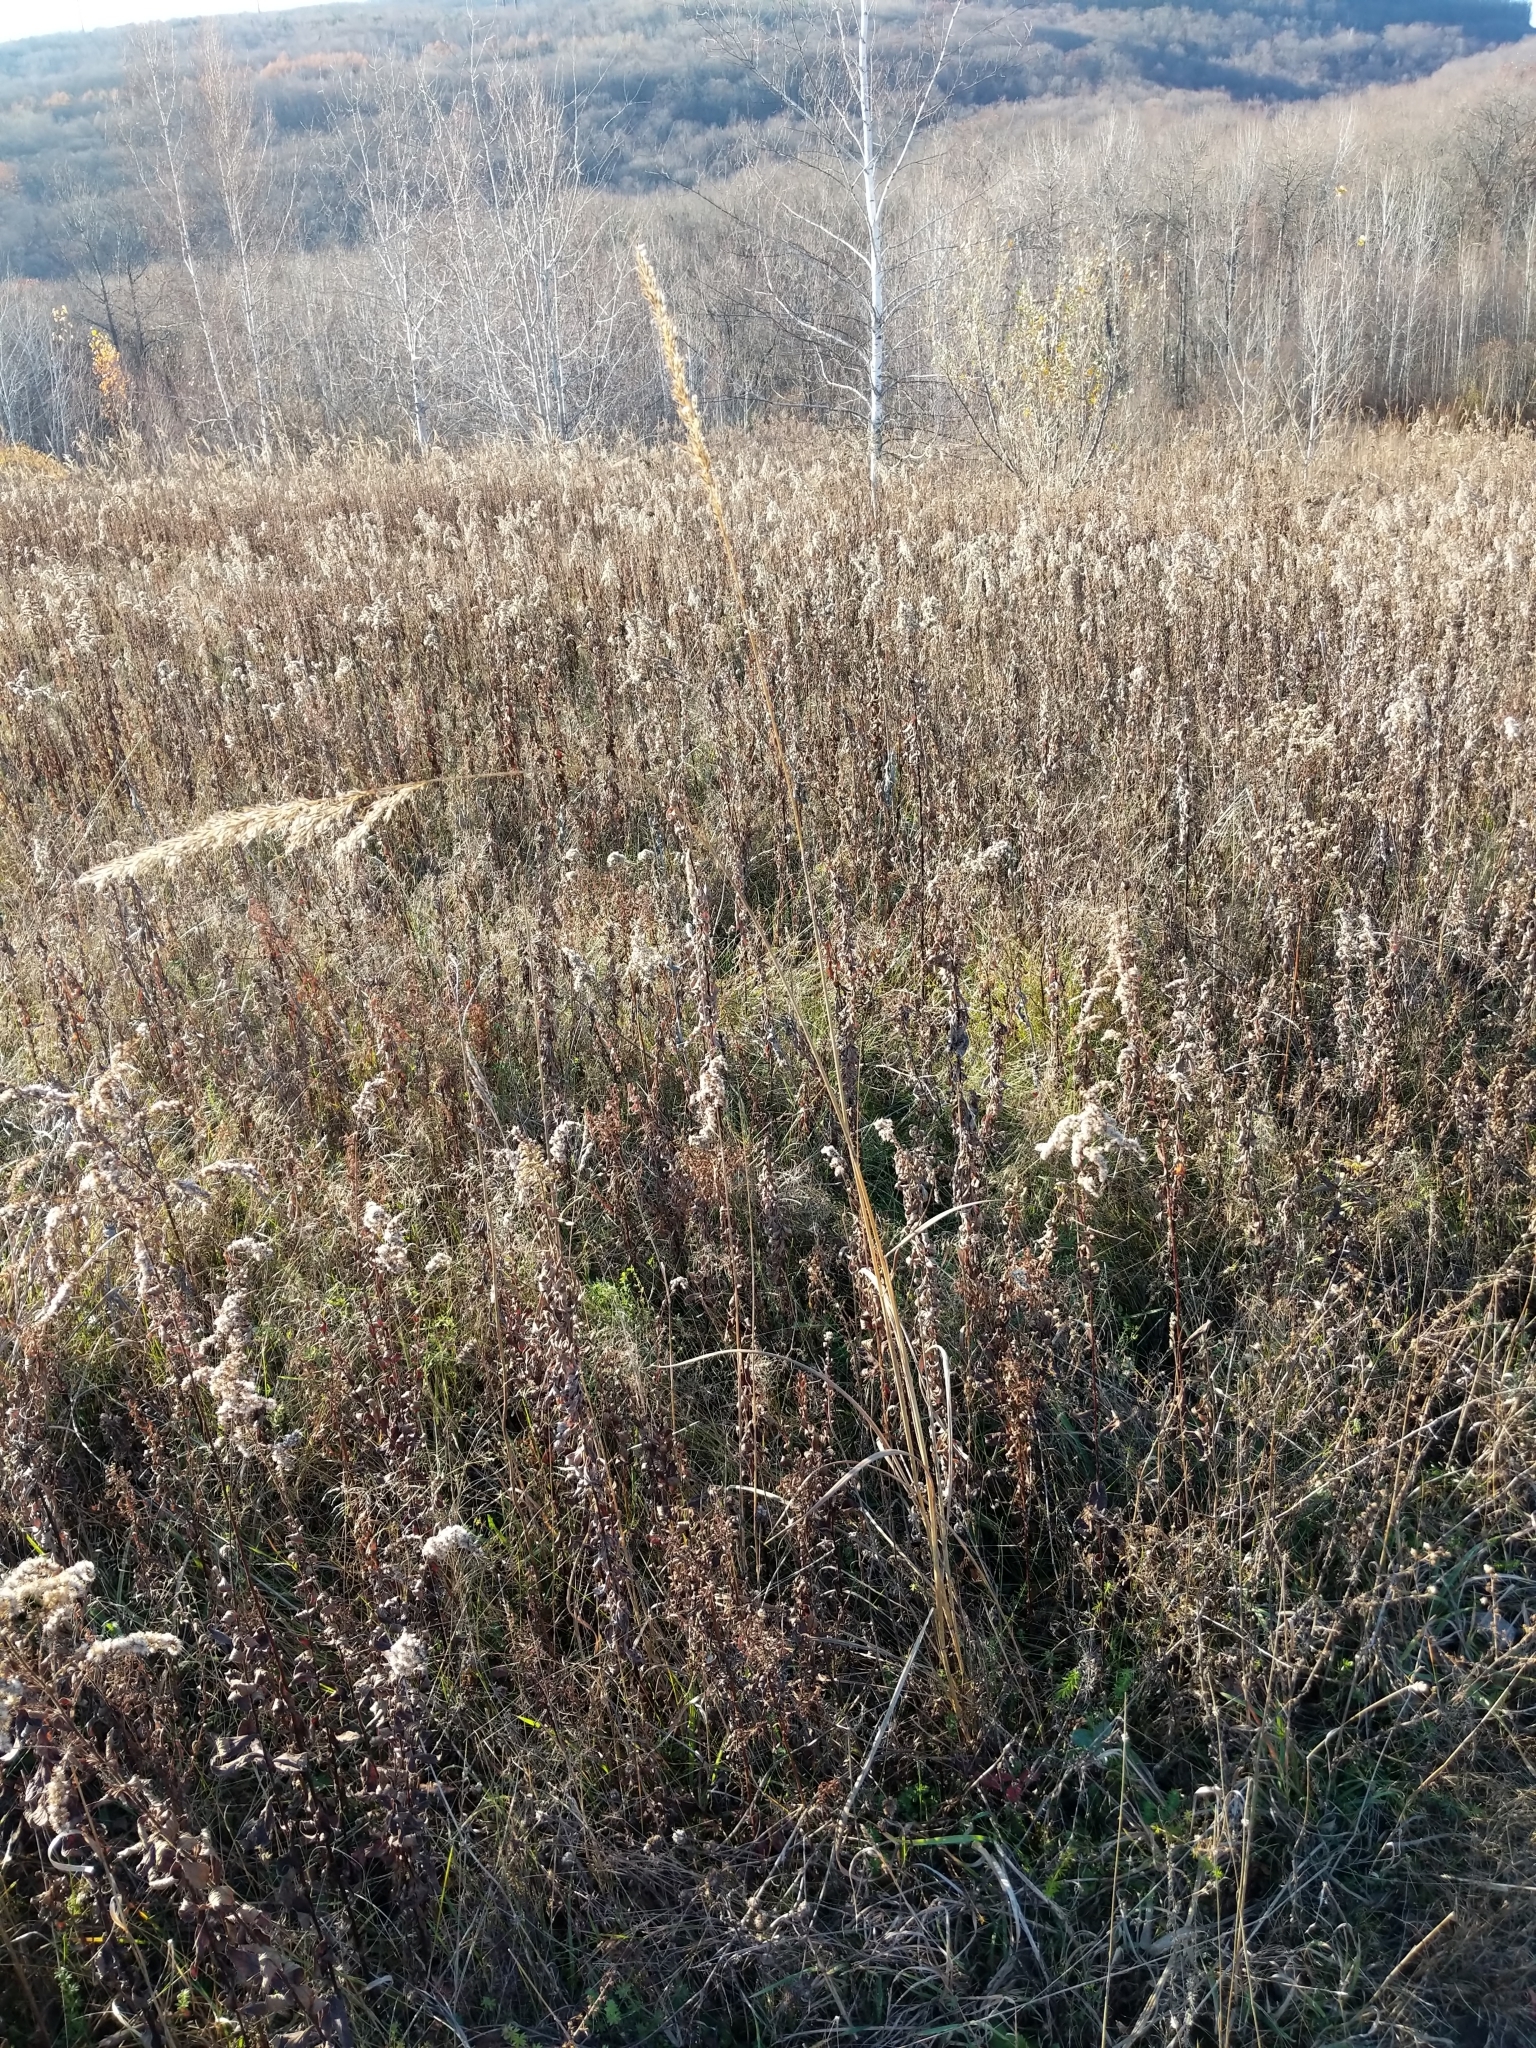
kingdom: Plantae
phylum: Tracheophyta
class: Liliopsida
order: Poales
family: Poaceae
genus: Sorghastrum
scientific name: Sorghastrum nutans
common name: Indian grass
